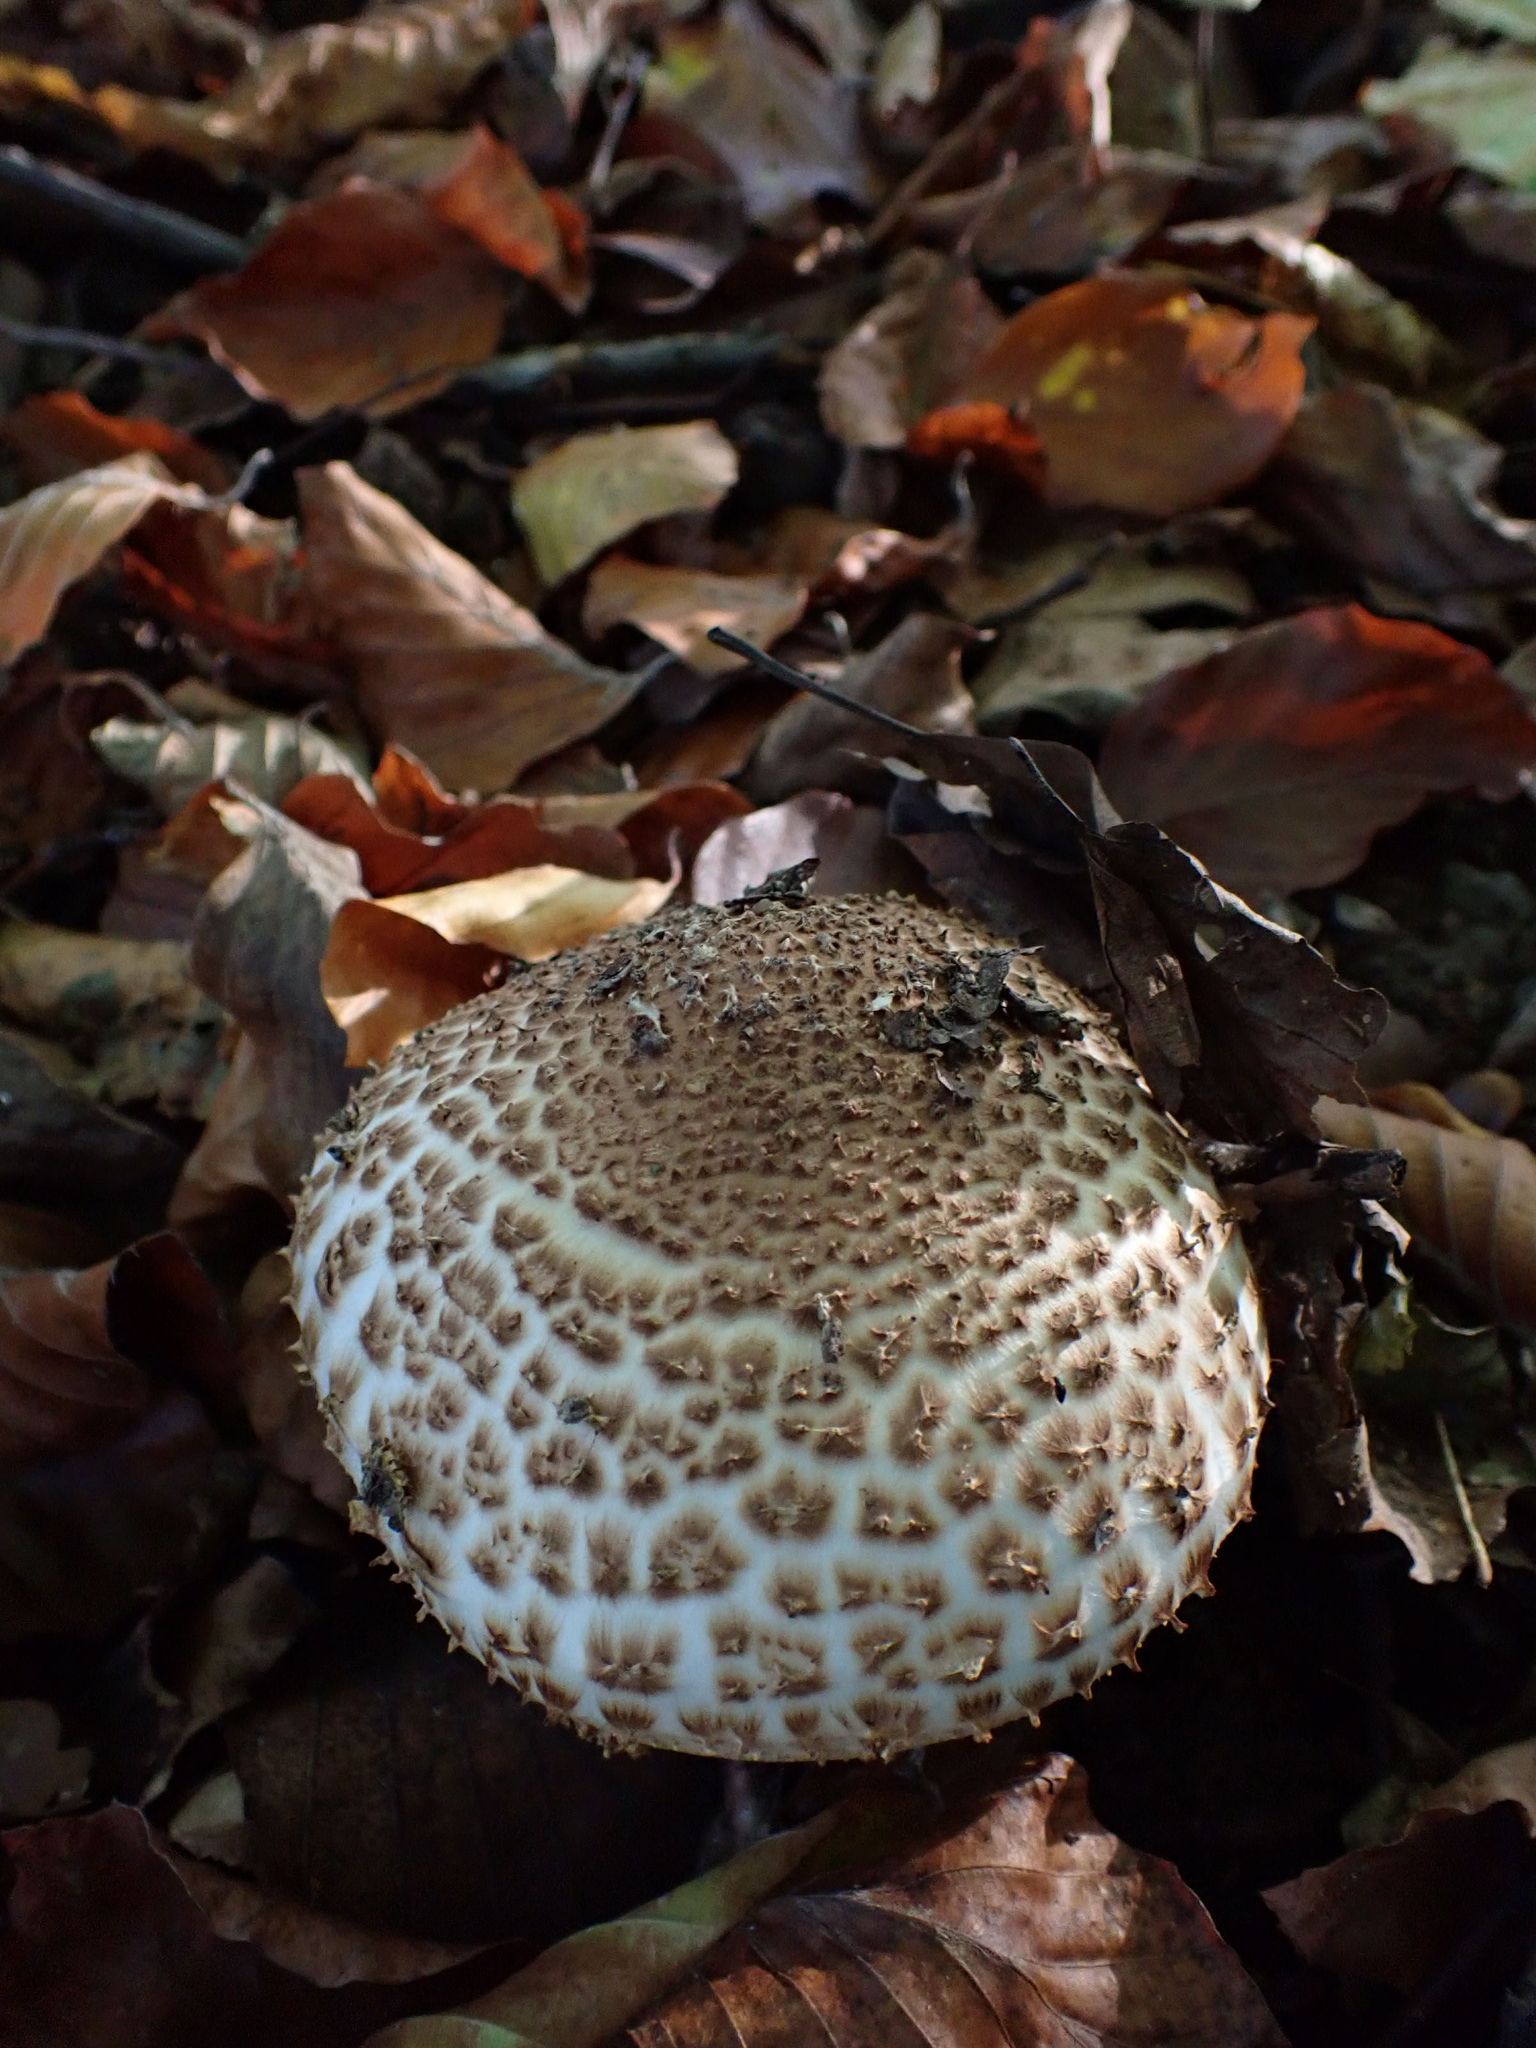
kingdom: Fungi
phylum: Basidiomycota
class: Agaricomycetes
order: Agaricales
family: Agaricaceae
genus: Echinoderma
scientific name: Echinoderma asperum
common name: Freckled dapperling
